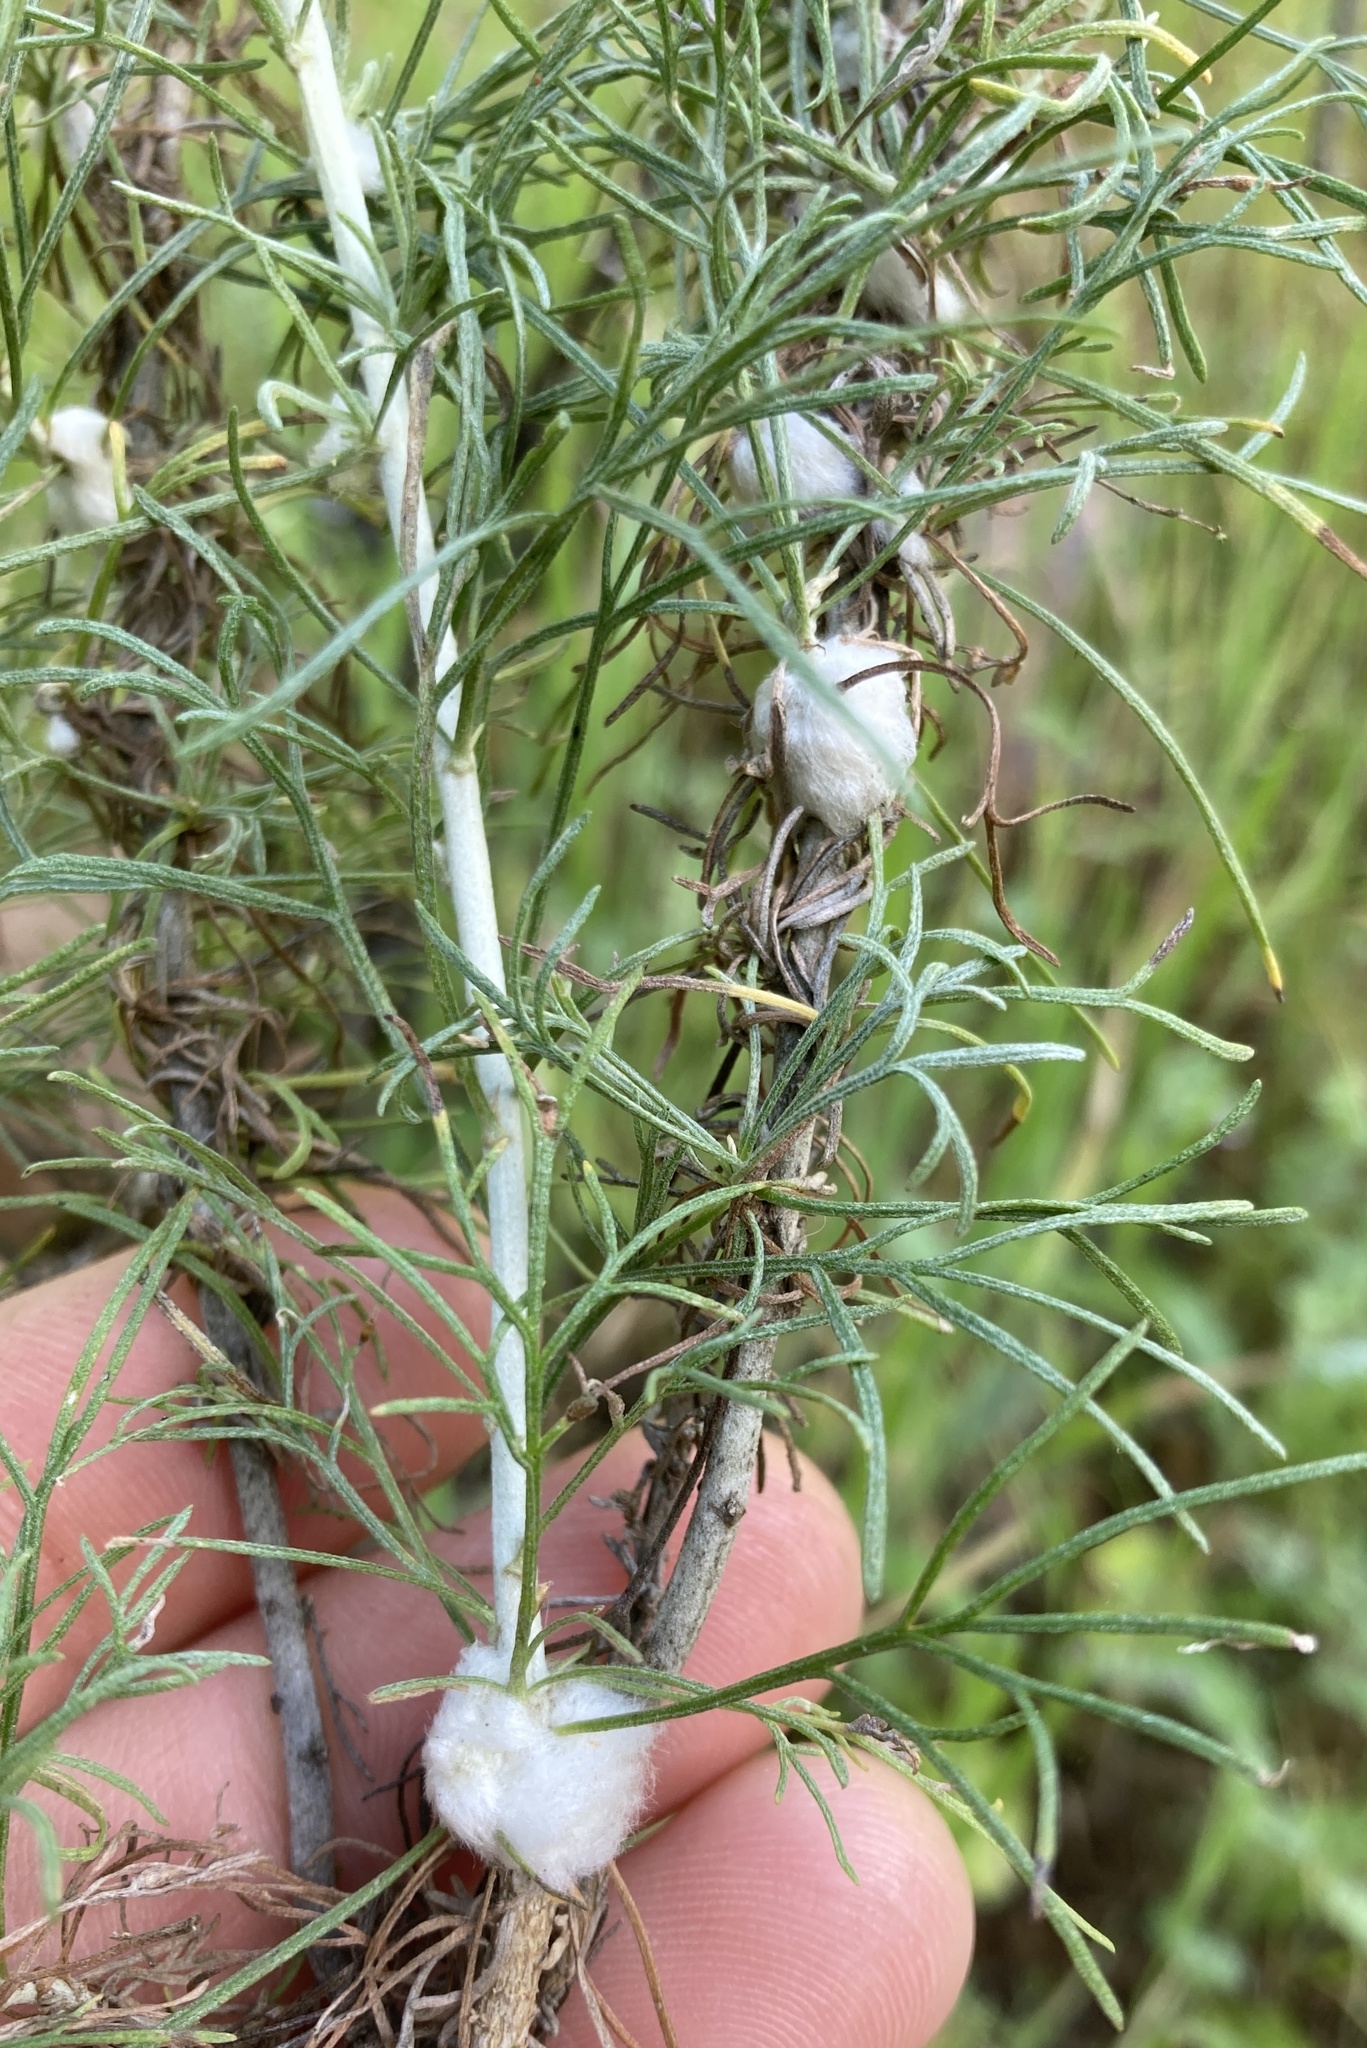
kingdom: Animalia
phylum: Arthropoda
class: Insecta
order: Diptera
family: Cecidomyiidae
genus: Rhopalomyia
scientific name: Rhopalomyia floccosa
